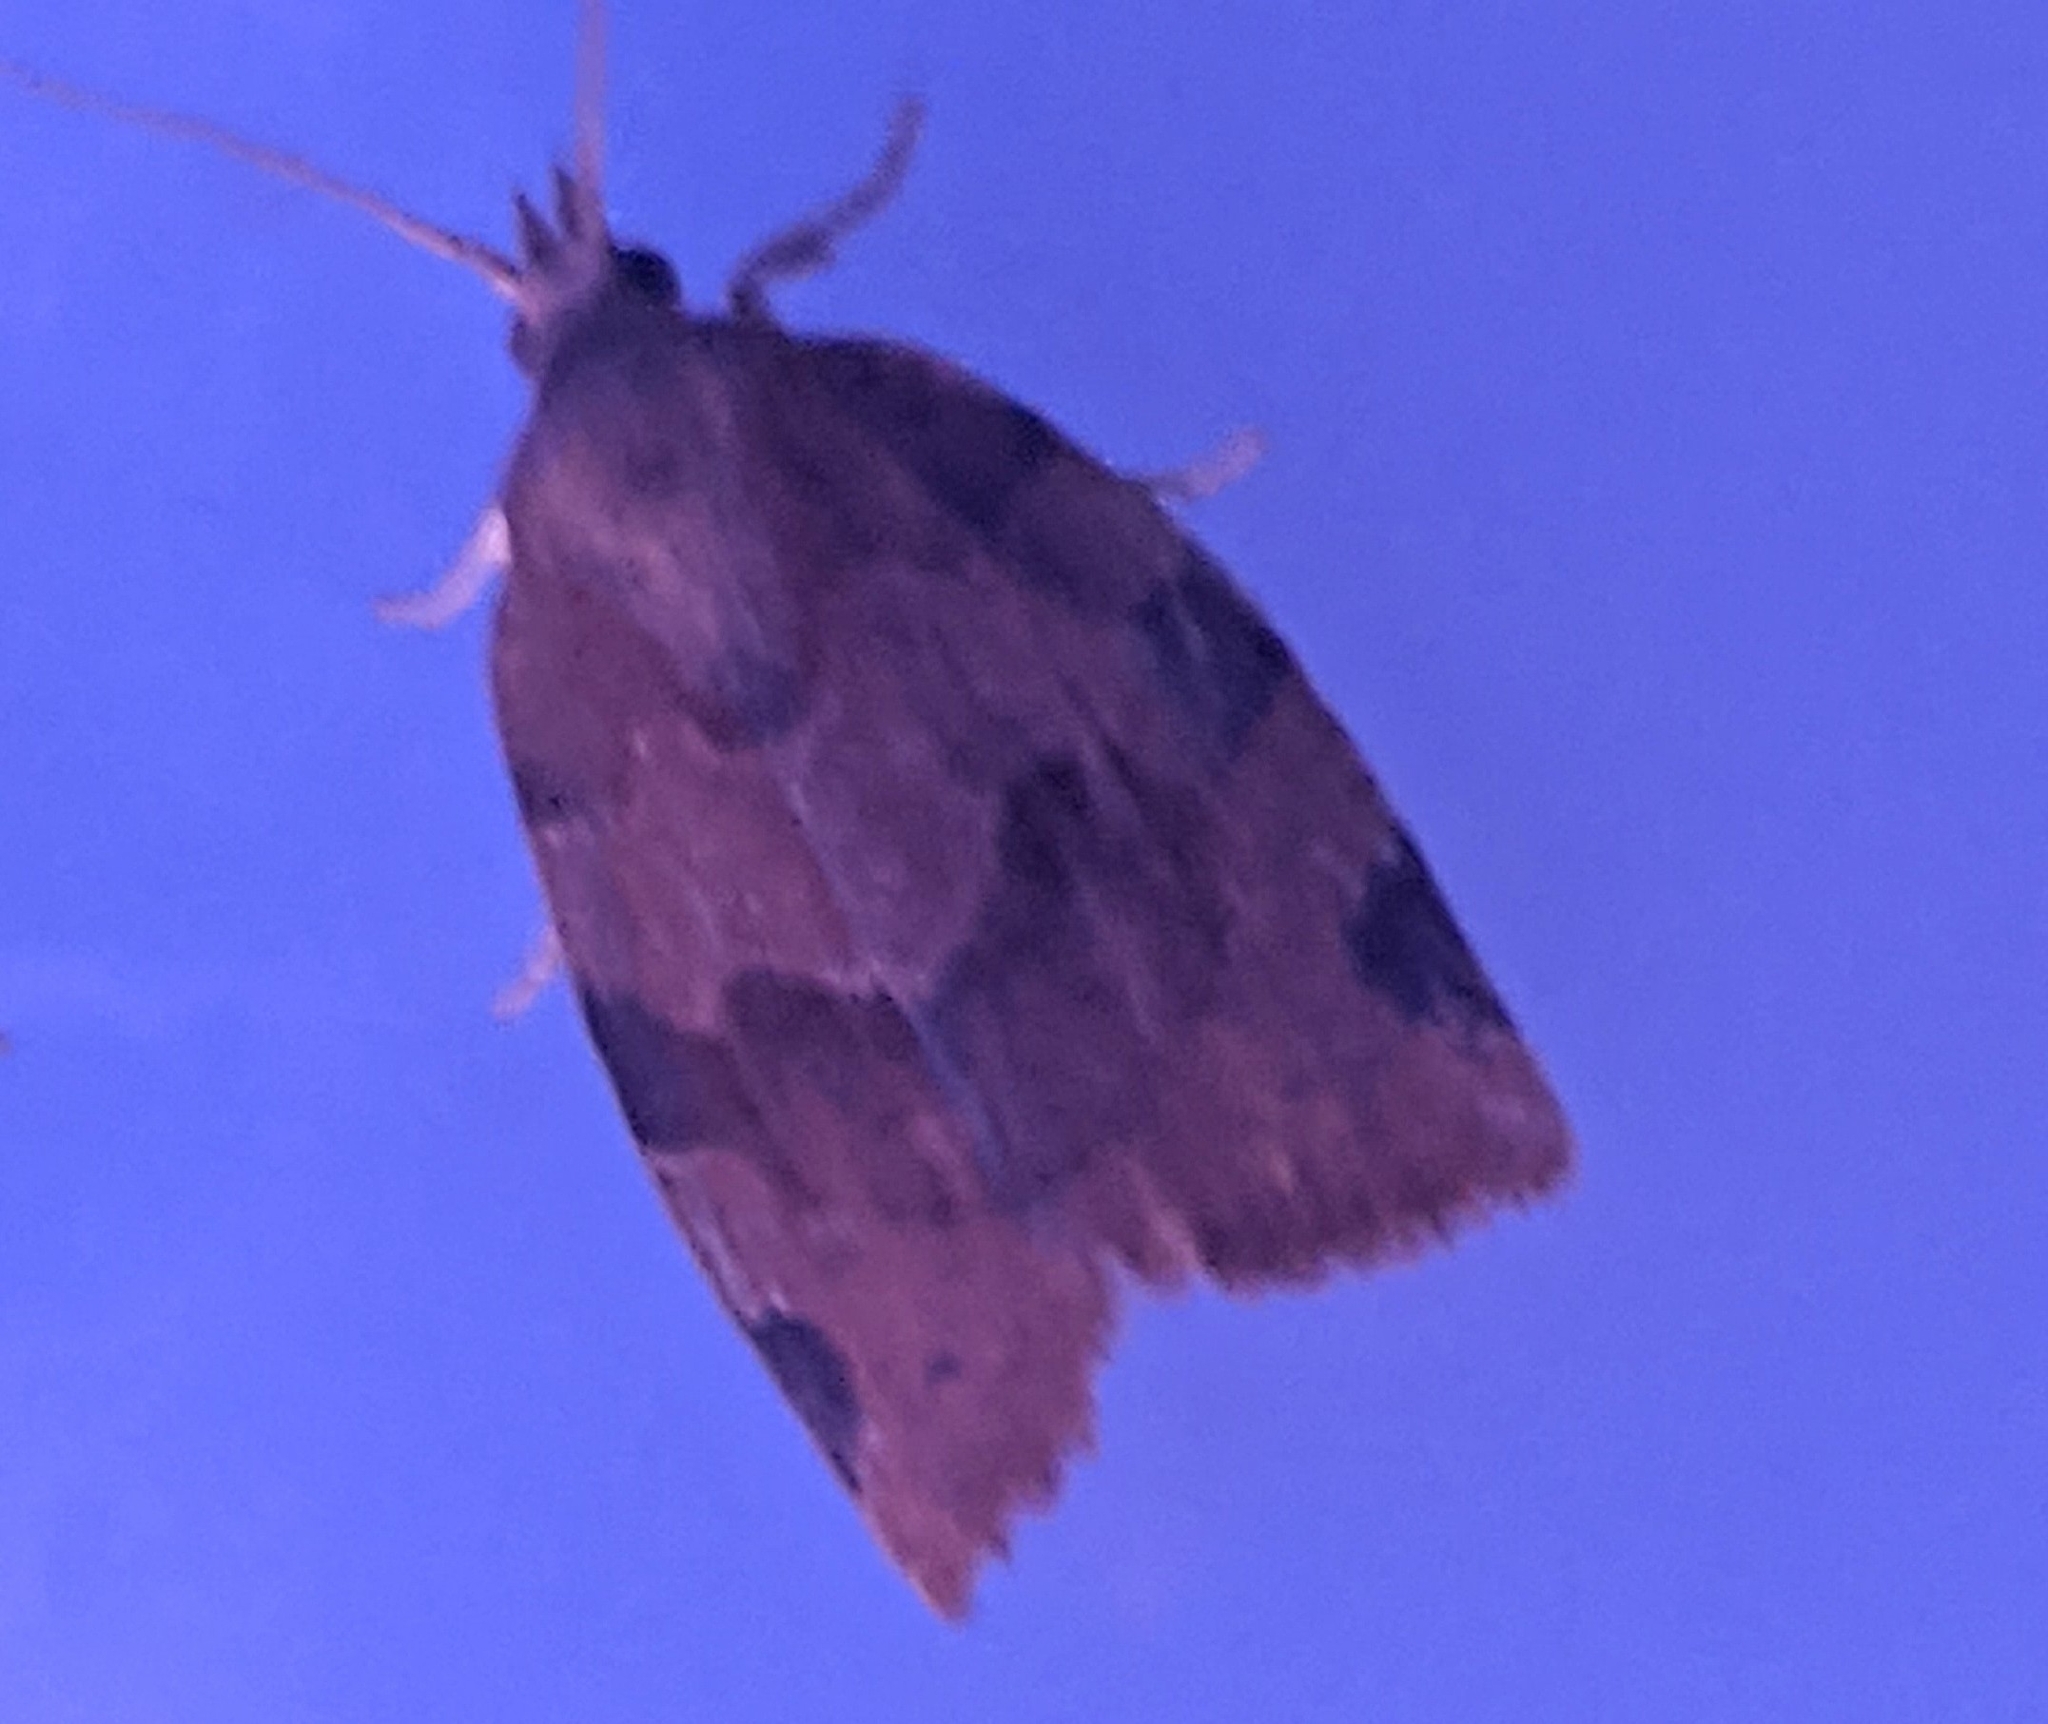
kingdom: Animalia
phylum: Arthropoda
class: Insecta
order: Lepidoptera
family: Tortricidae
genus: Pandemis
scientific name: Pandemis limitata
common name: Three-lined leafroller moth
